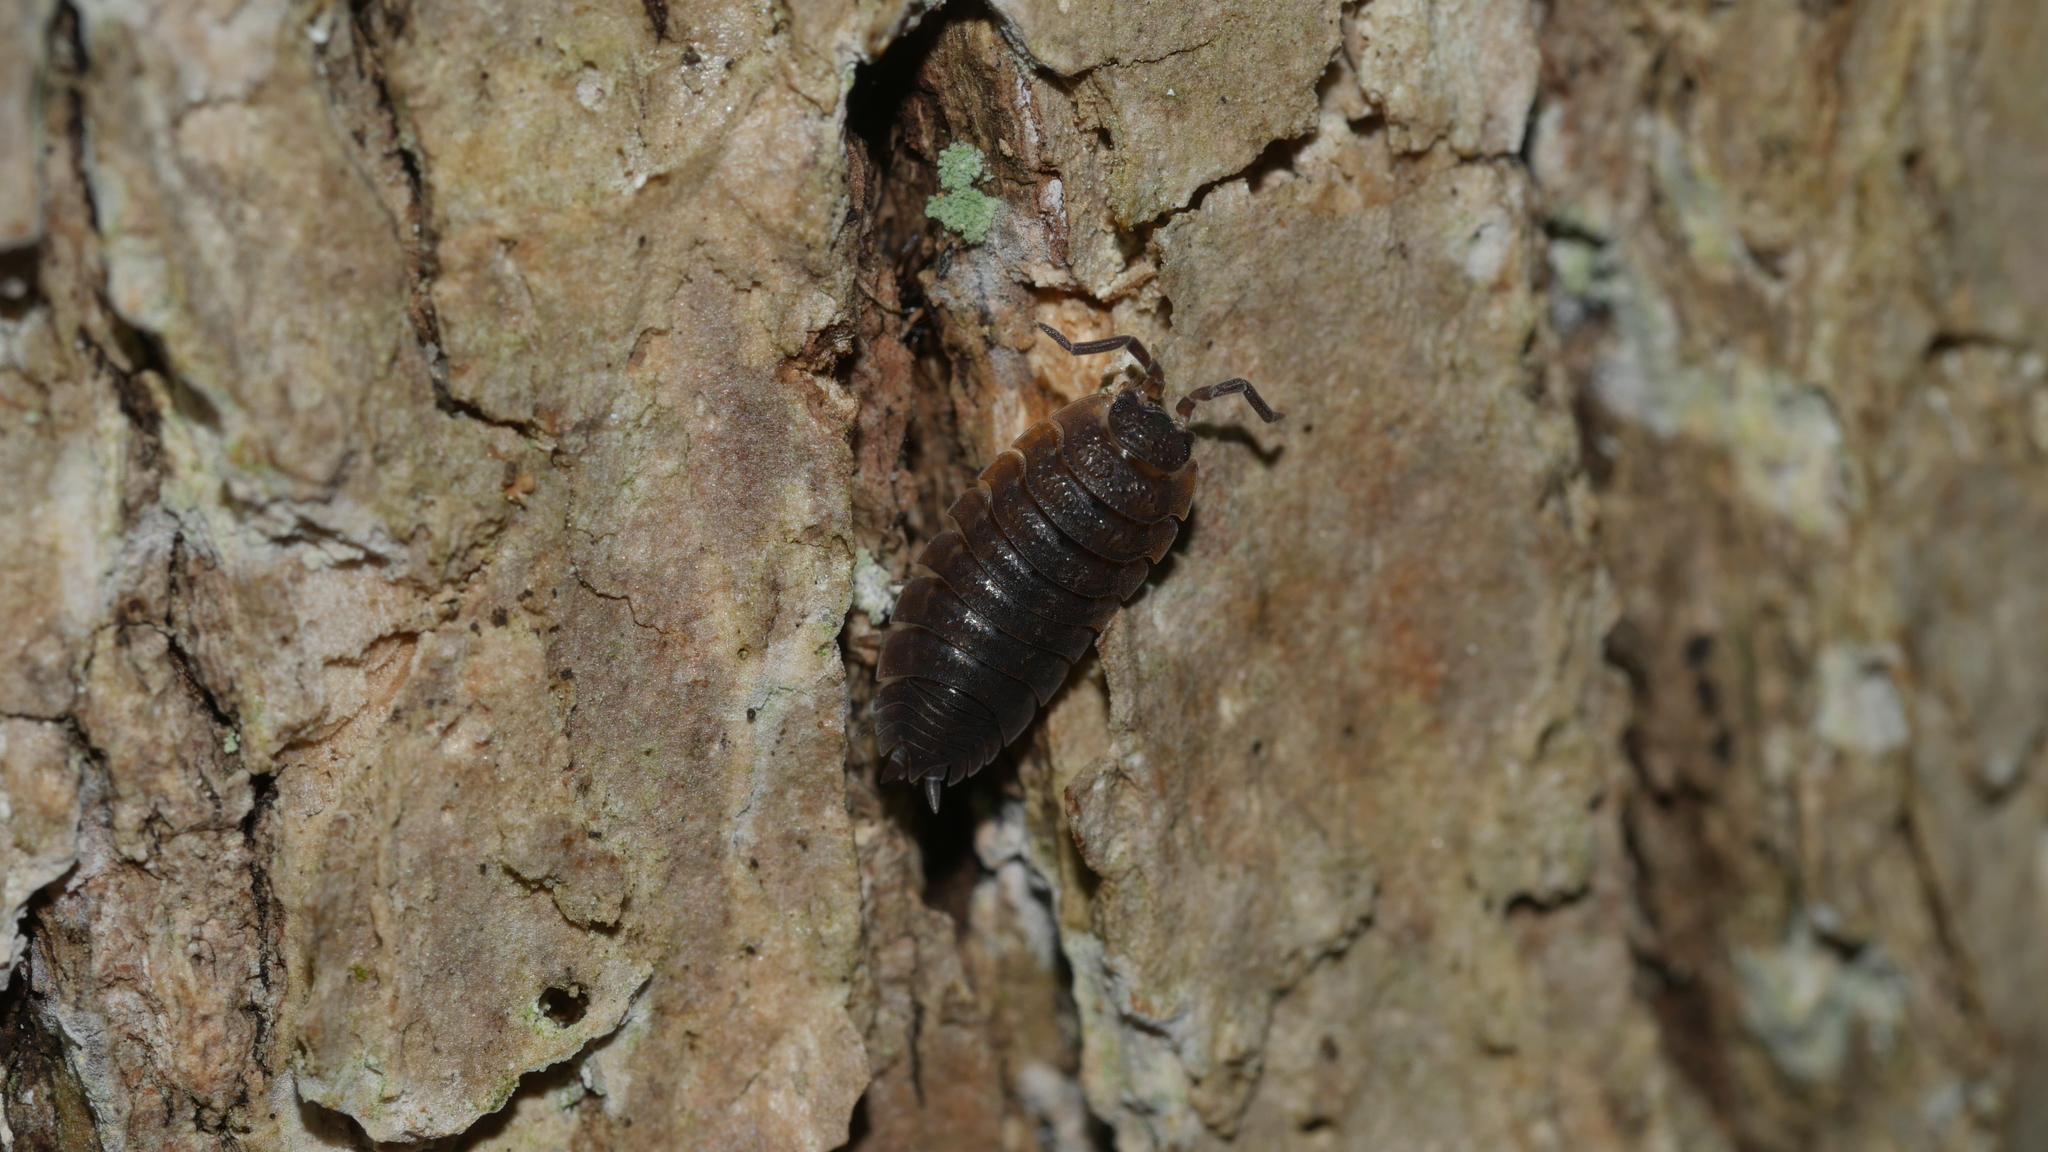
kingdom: Animalia
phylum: Arthropoda
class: Malacostraca
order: Isopoda
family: Porcellionidae
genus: Porcellio
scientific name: Porcellio scaber
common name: Common rough woodlouse
